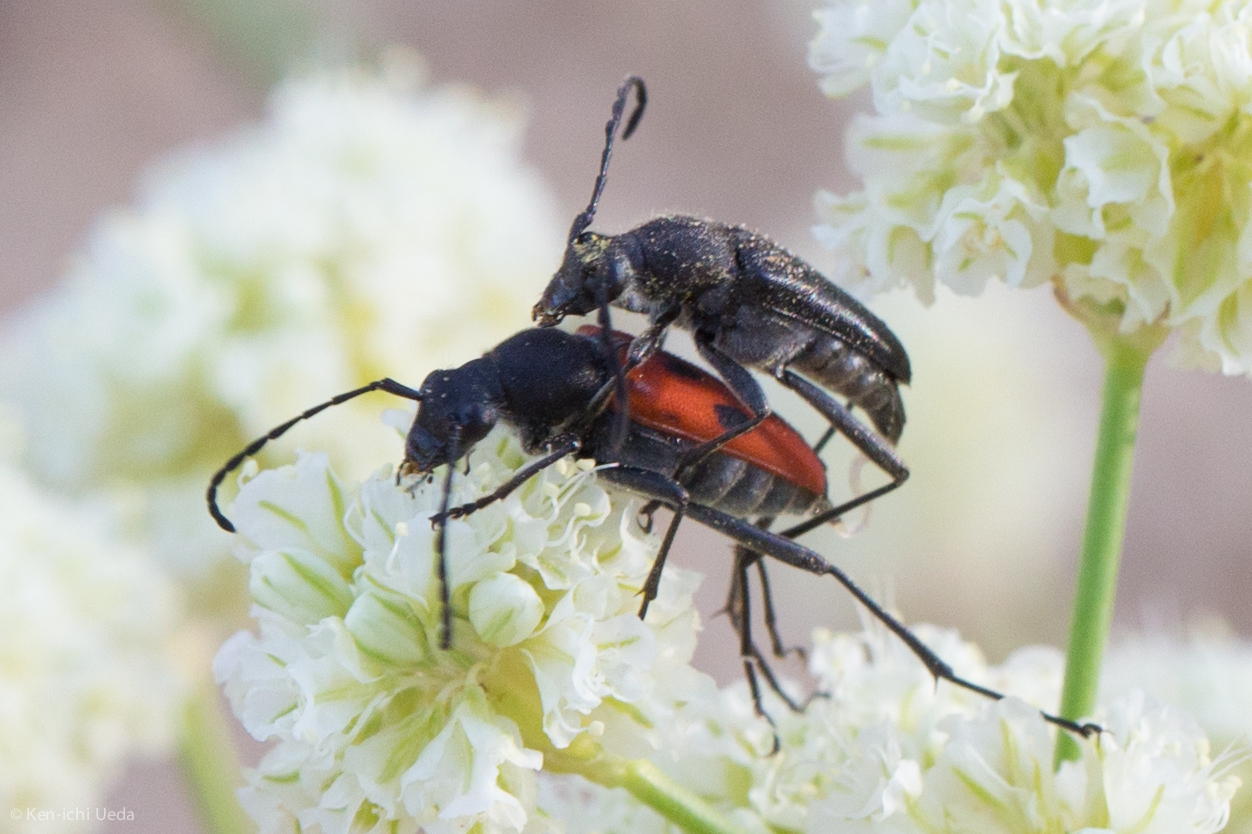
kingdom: Animalia
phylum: Arthropoda
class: Insecta
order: Coleoptera
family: Cerambycidae
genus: Anastrangalia
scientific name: Anastrangalia laetifica
